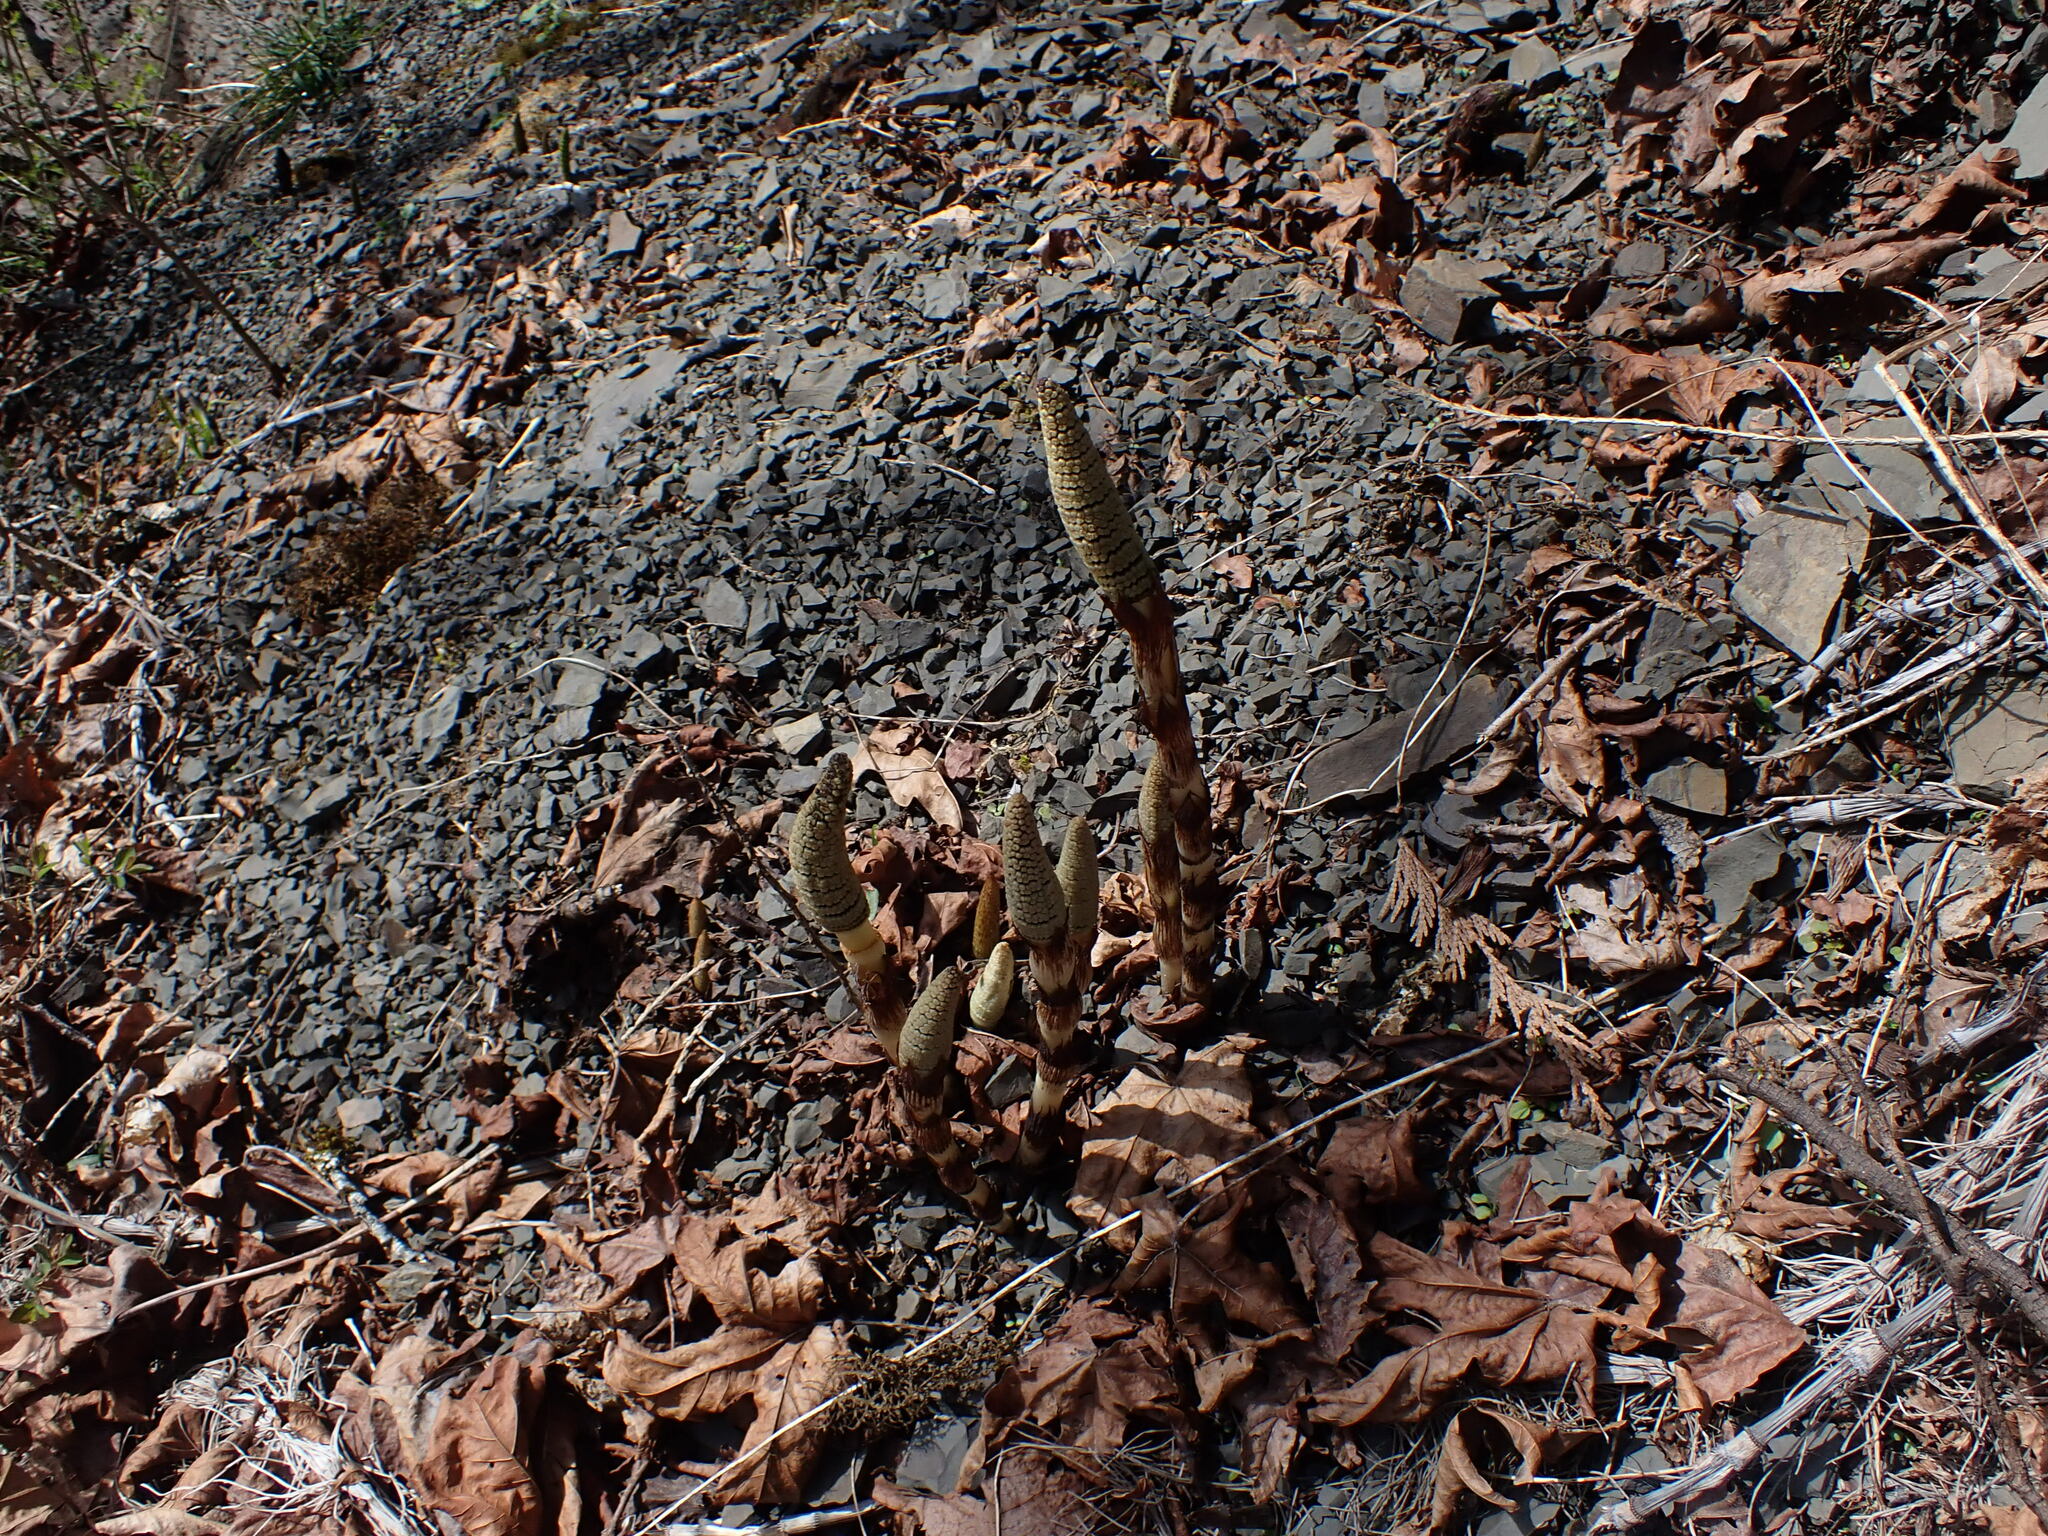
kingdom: Plantae
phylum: Tracheophyta
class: Polypodiopsida
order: Equisetales
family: Equisetaceae
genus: Equisetum
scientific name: Equisetum telmateia
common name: Great horsetail
